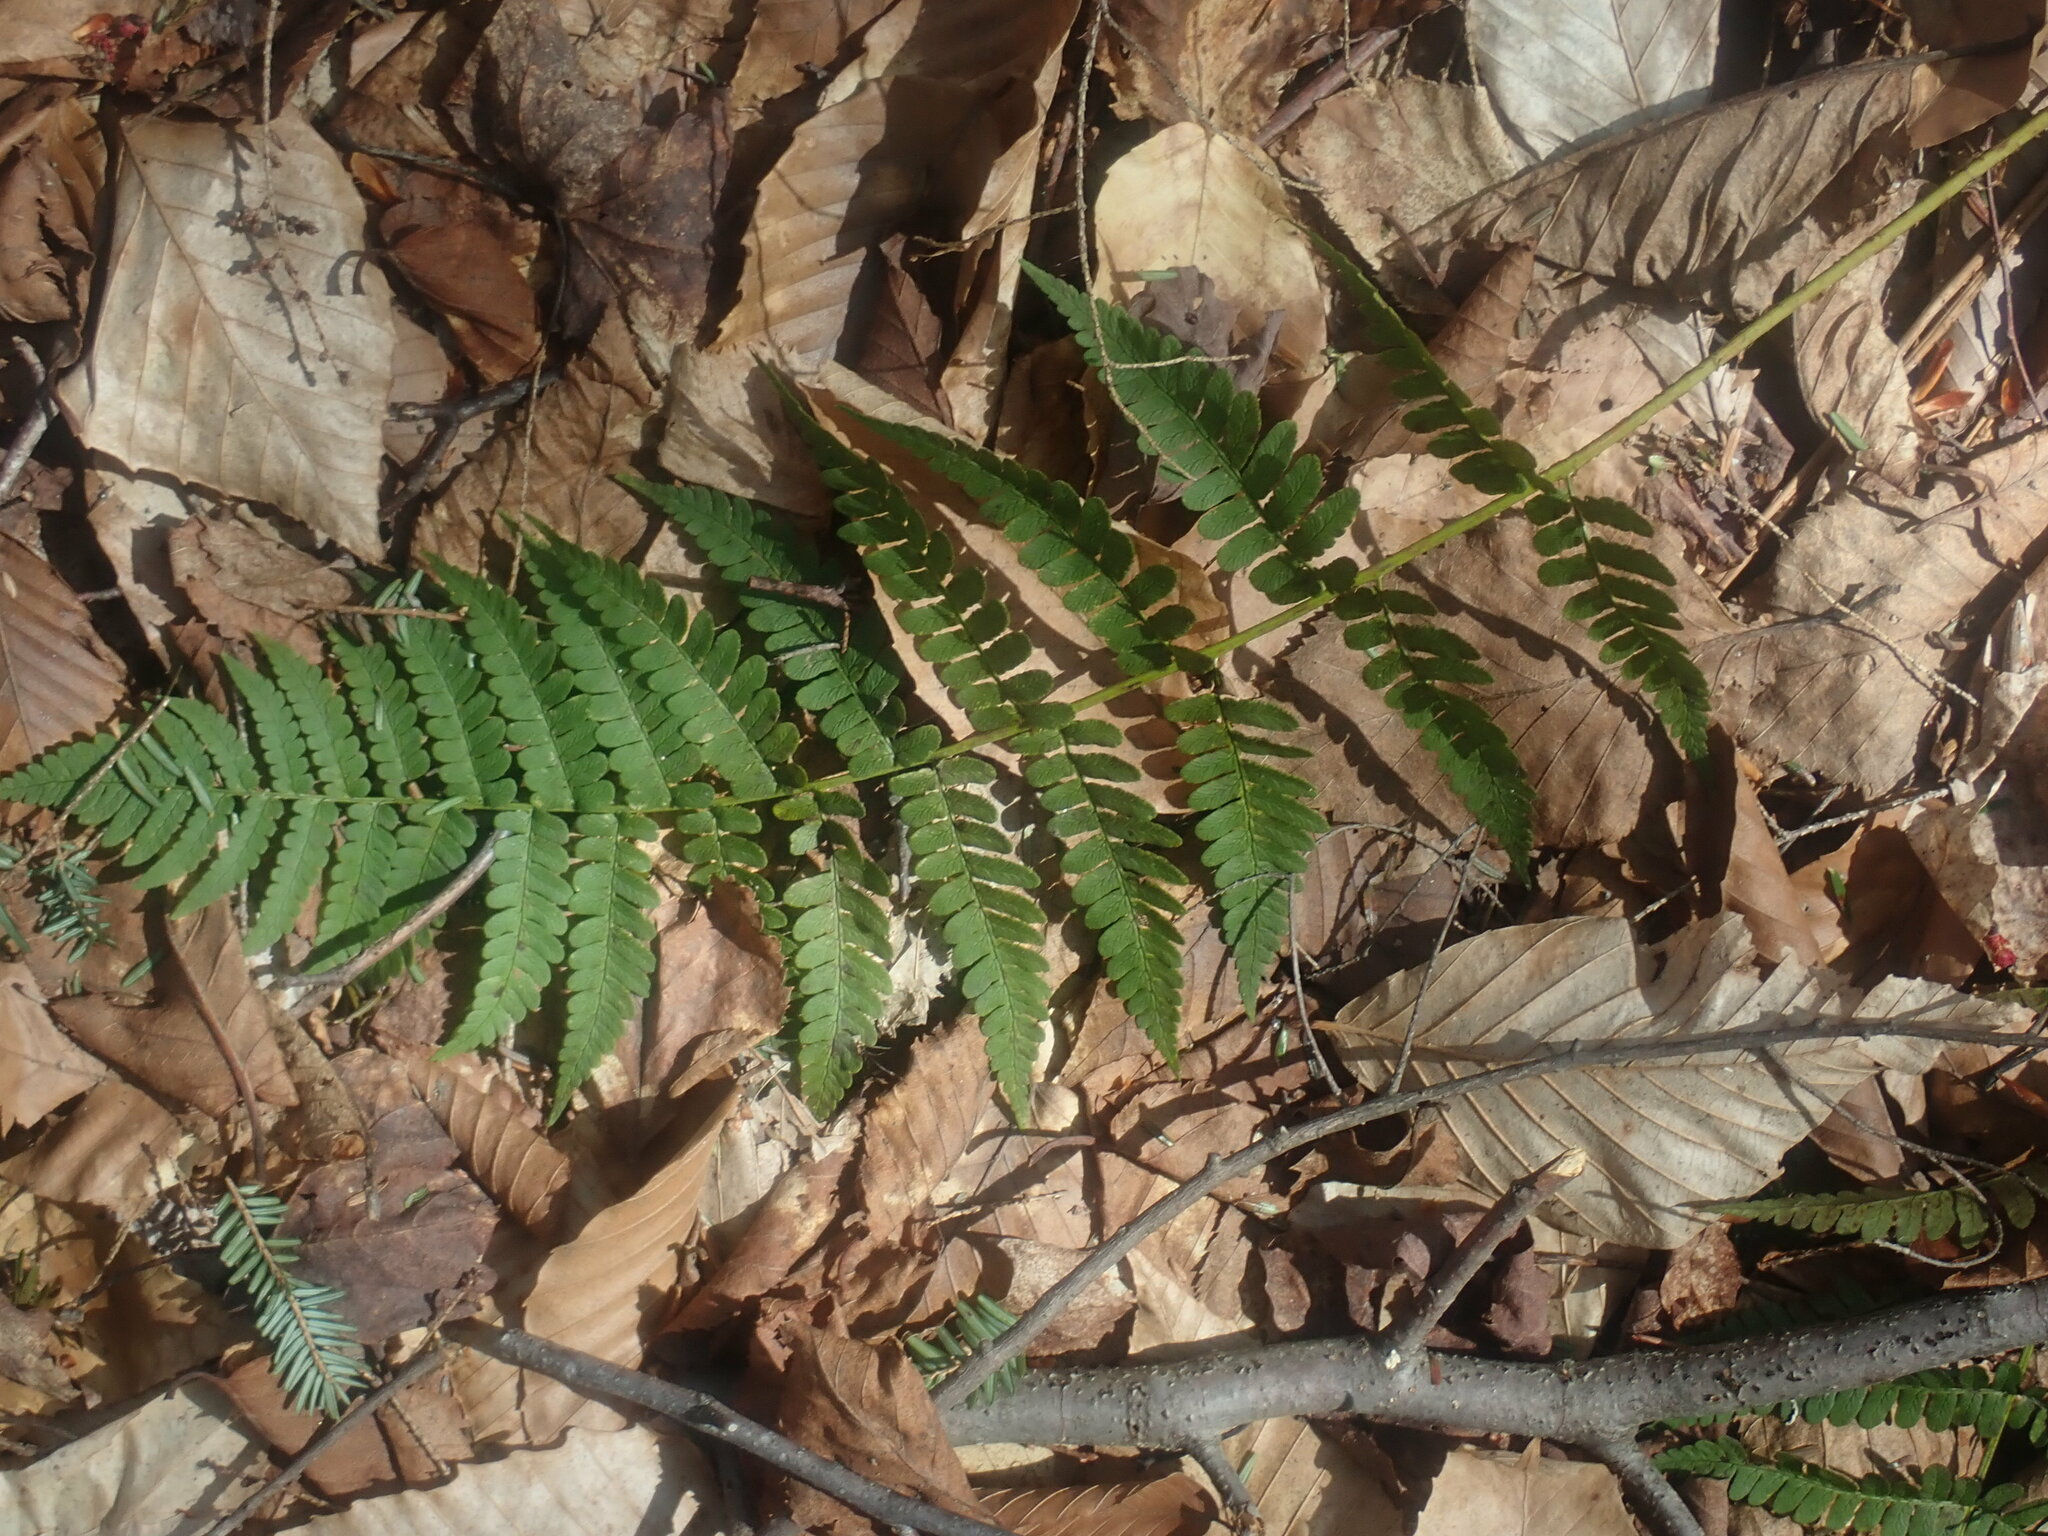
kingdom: Plantae
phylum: Tracheophyta
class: Polypodiopsida
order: Polypodiales
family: Dryopteridaceae
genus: Dryopteris
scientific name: Dryopteris marginalis
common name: Marginal wood fern
